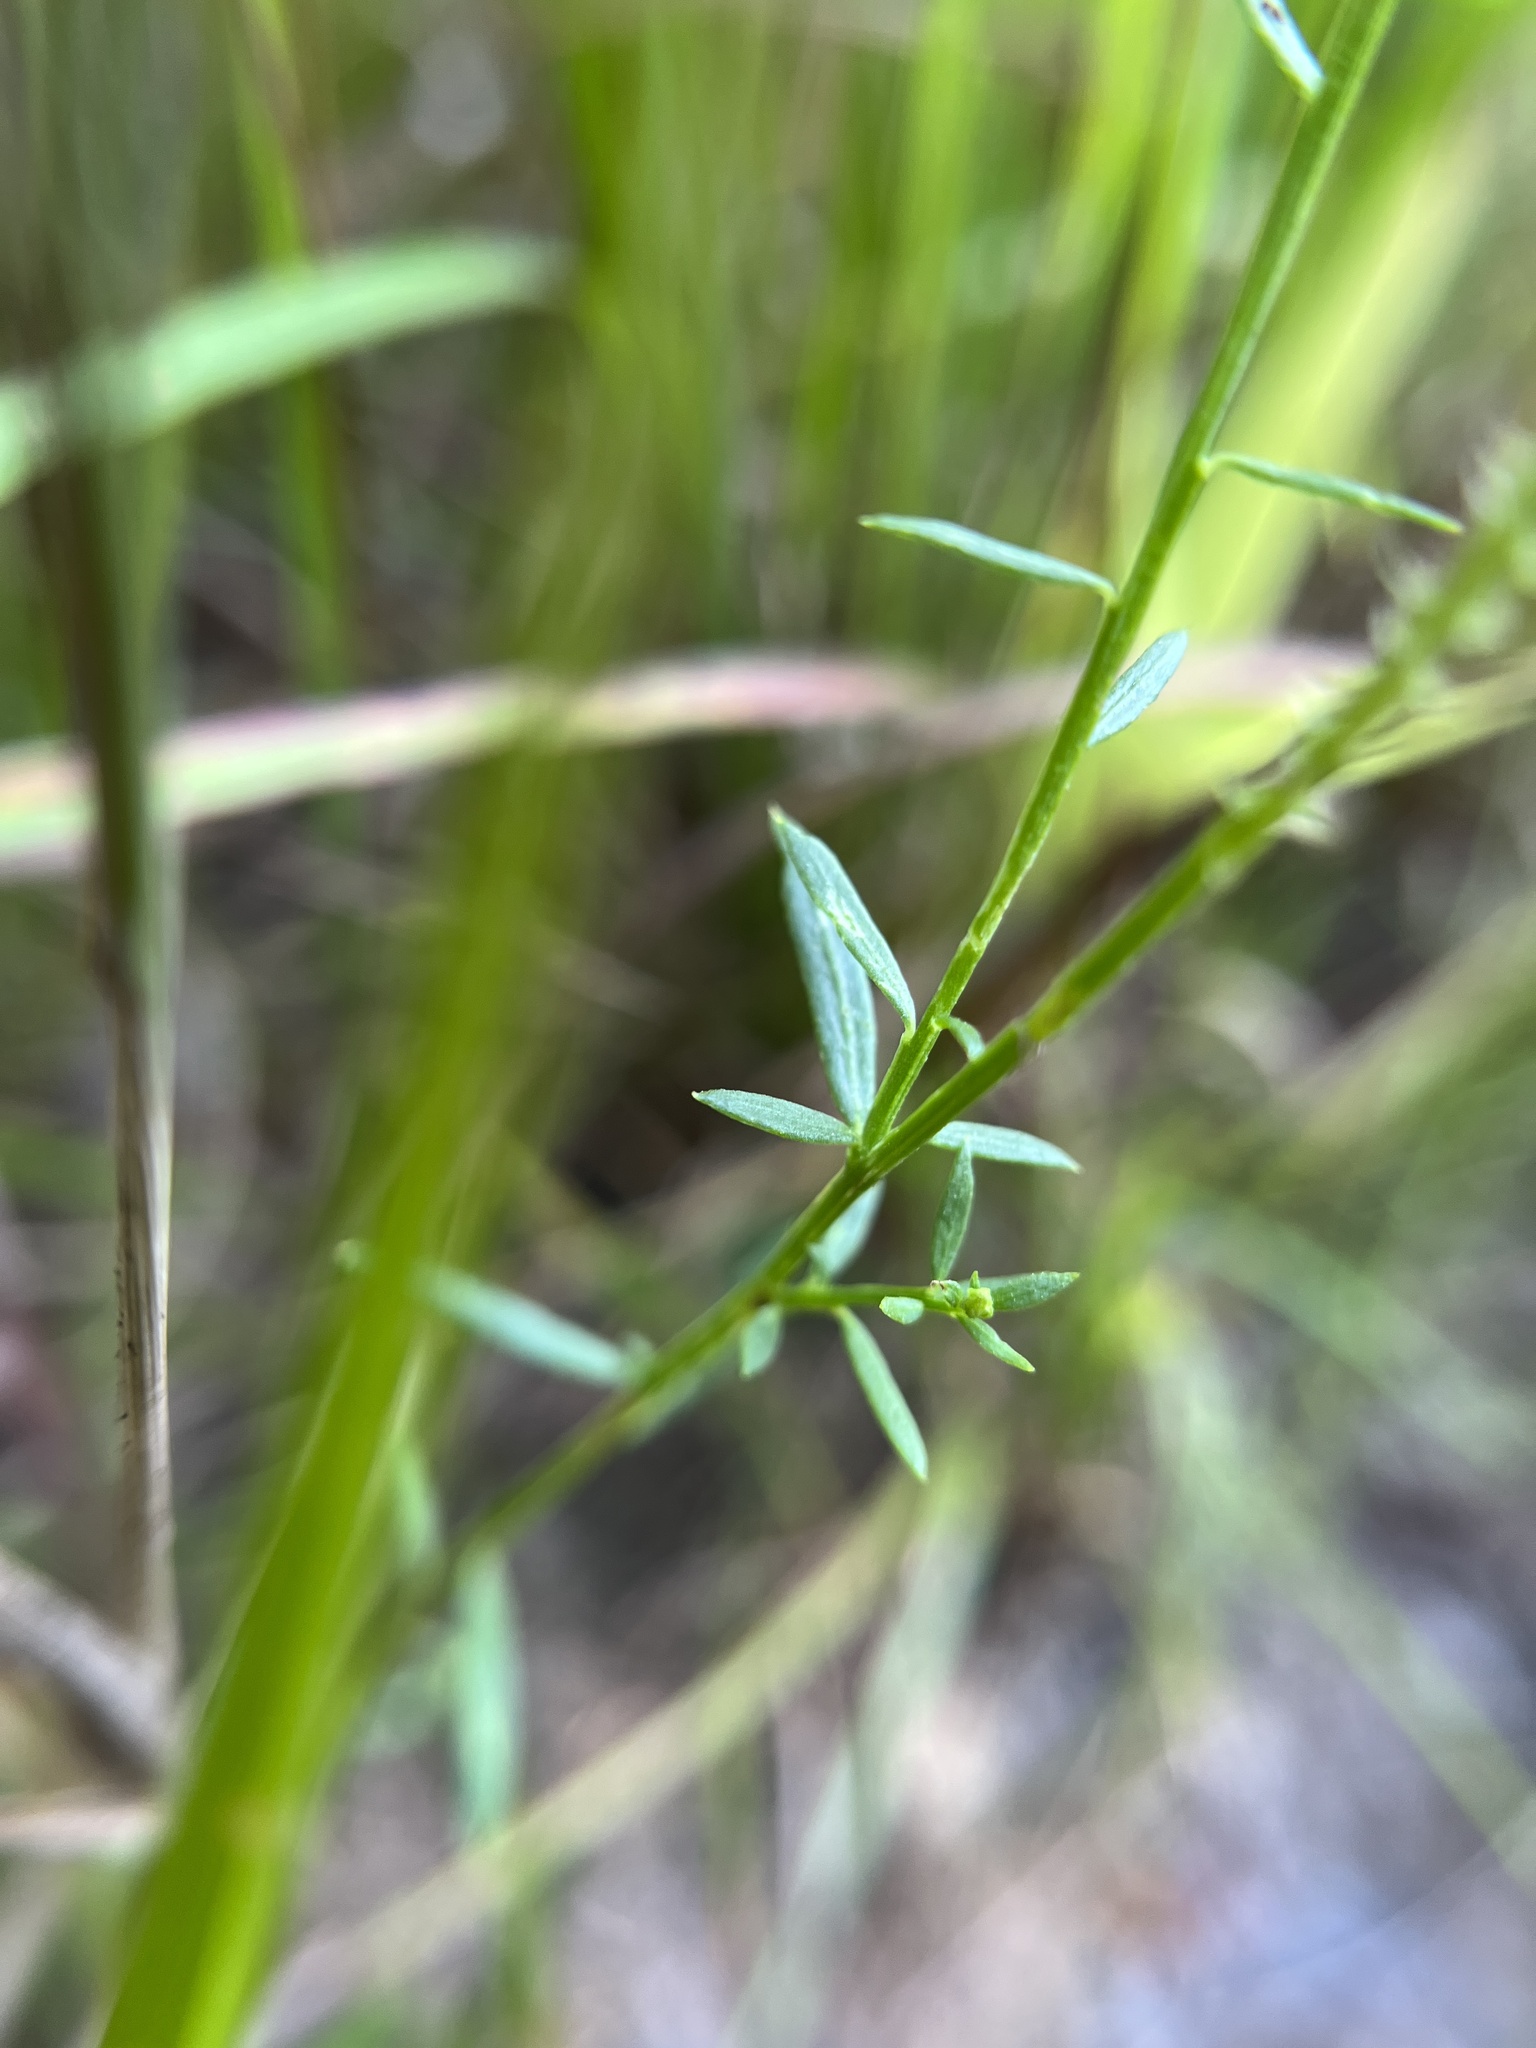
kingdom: Plantae
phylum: Tracheophyta
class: Magnoliopsida
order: Fabales
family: Polygalaceae
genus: Polygala
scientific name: Polygala curtissii
